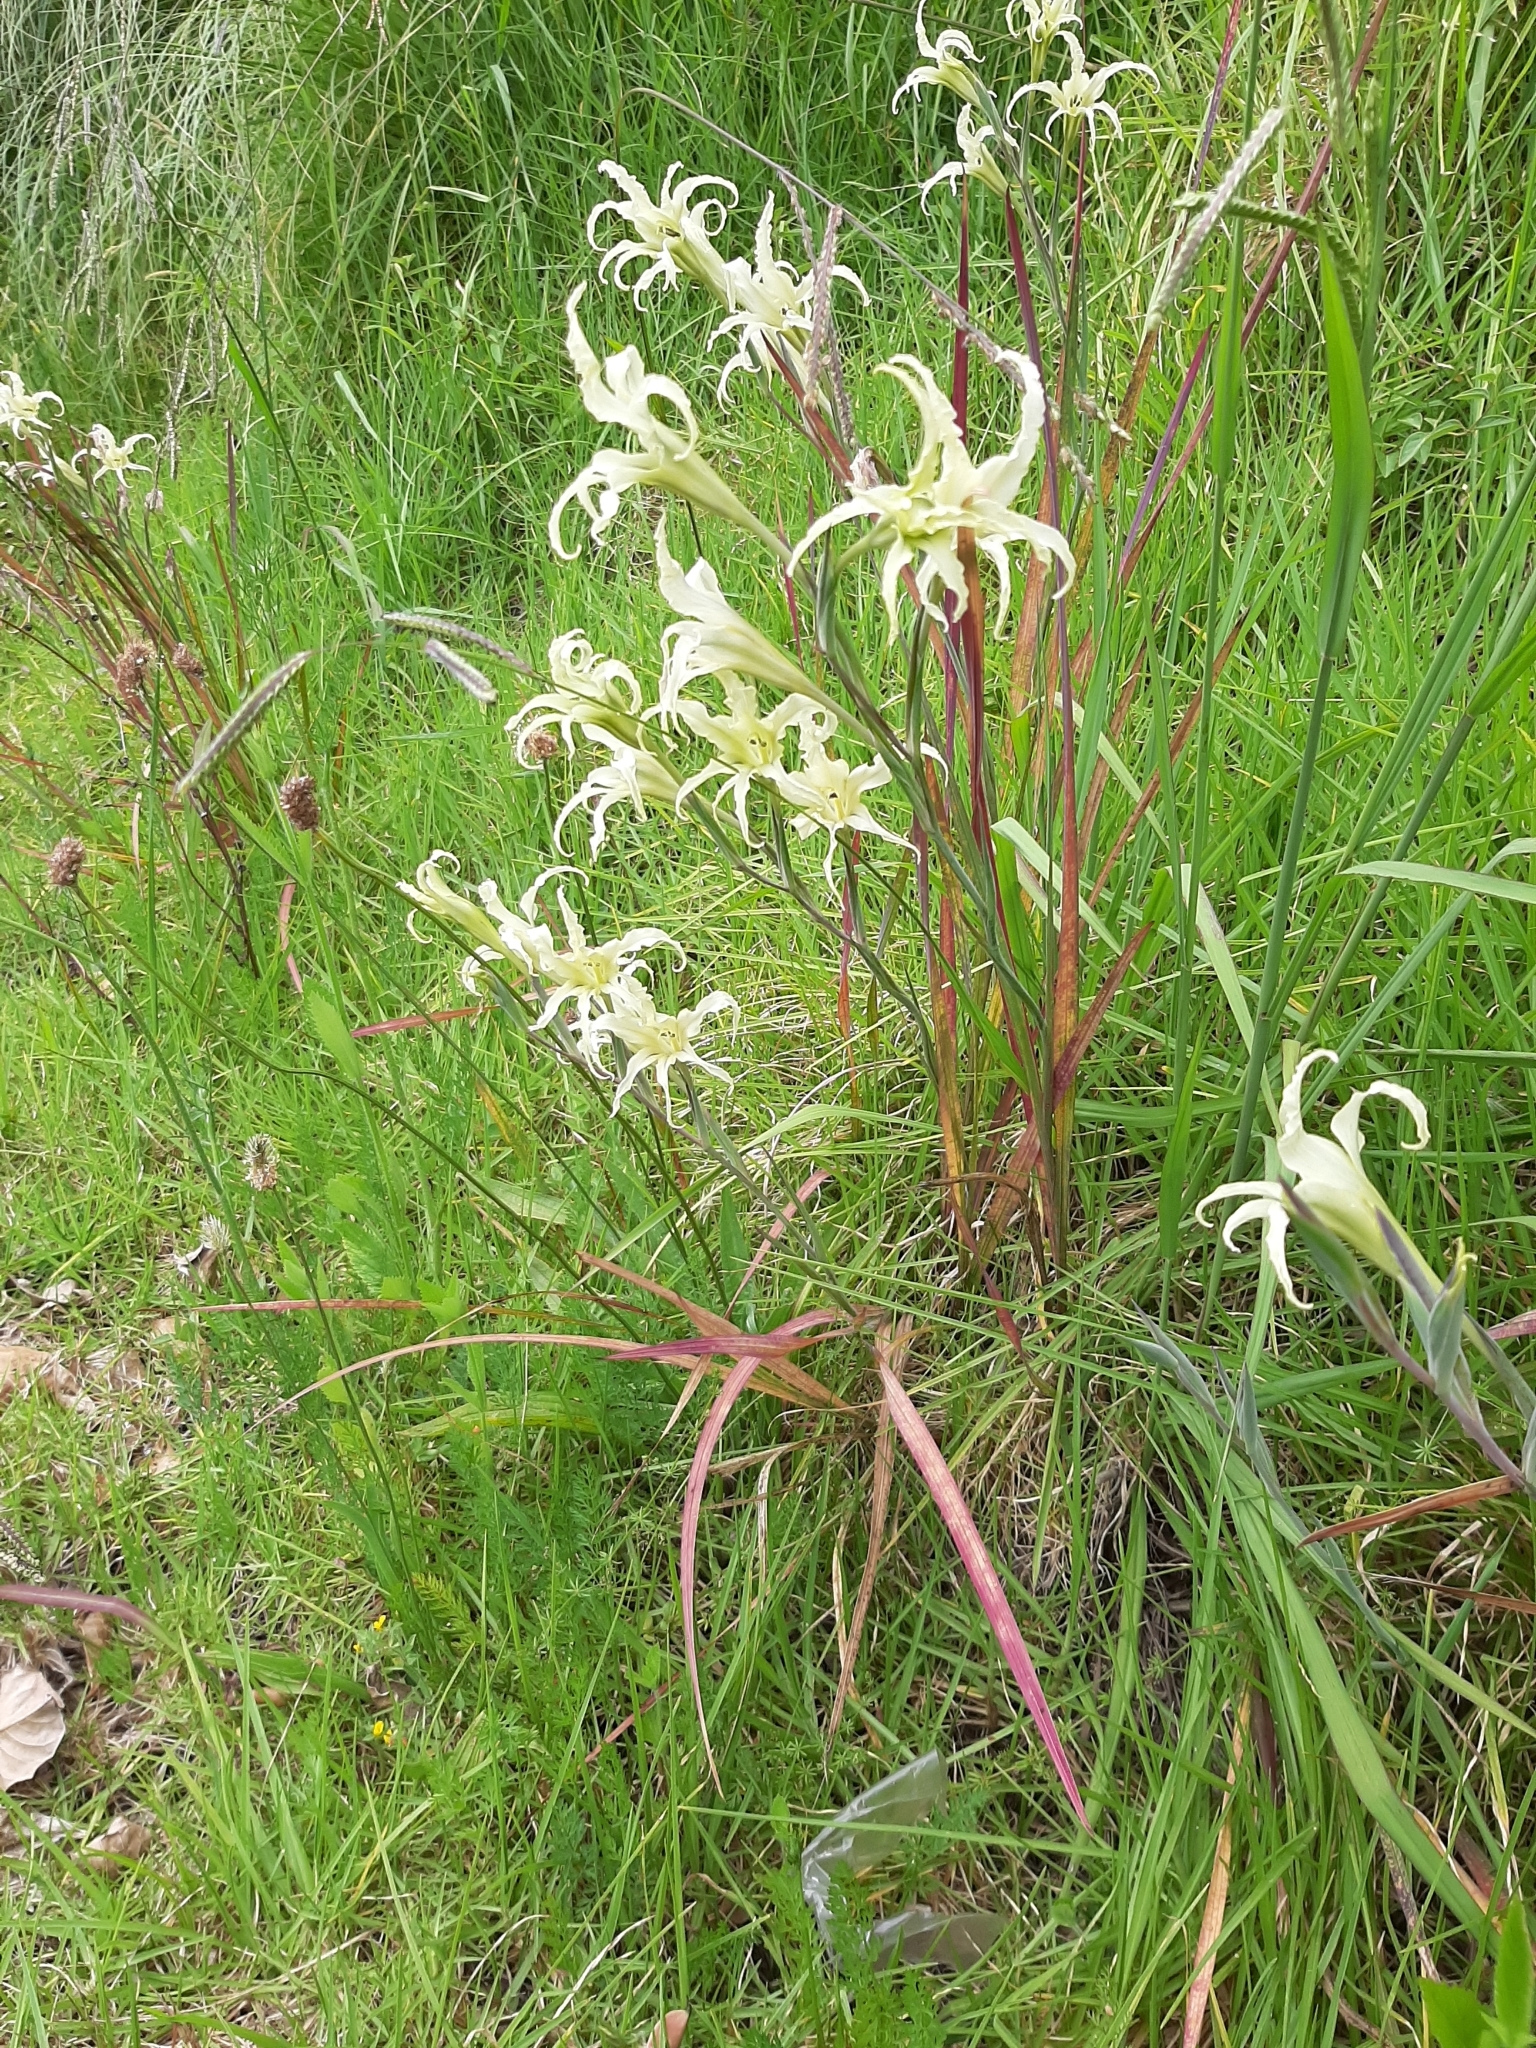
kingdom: Plantae
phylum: Tracheophyta
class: Liliopsida
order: Asparagales
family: Iridaceae
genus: Gladiolus
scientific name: Gladiolus undulatus
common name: Large painted-lady
